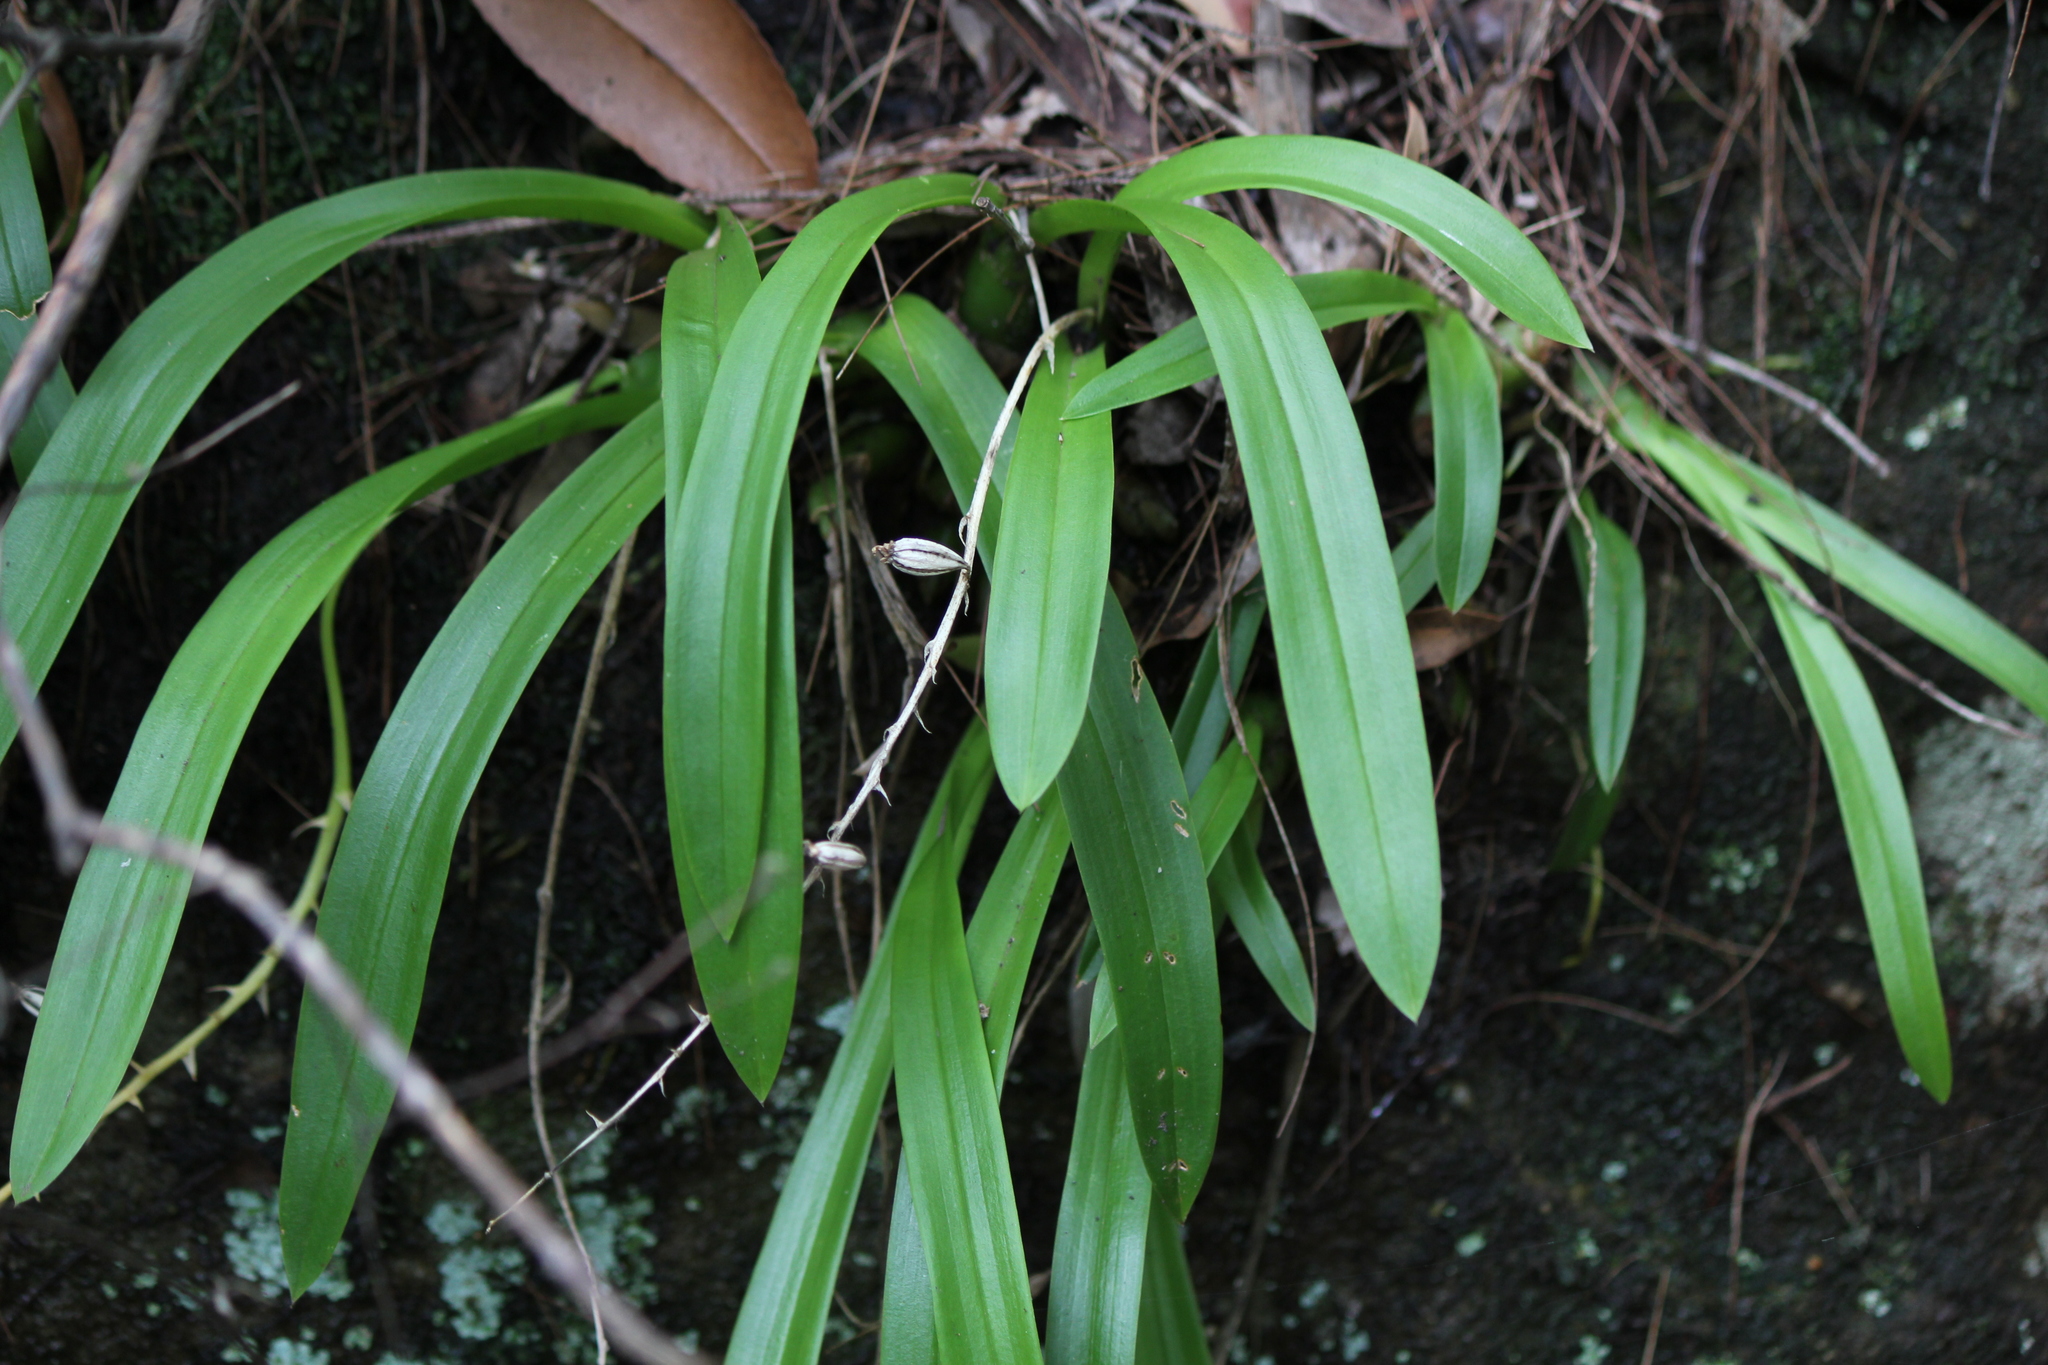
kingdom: Plantae
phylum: Tracheophyta
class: Liliopsida
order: Asparagales
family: Orchidaceae
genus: Liparis
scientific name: Liparis reflexa
